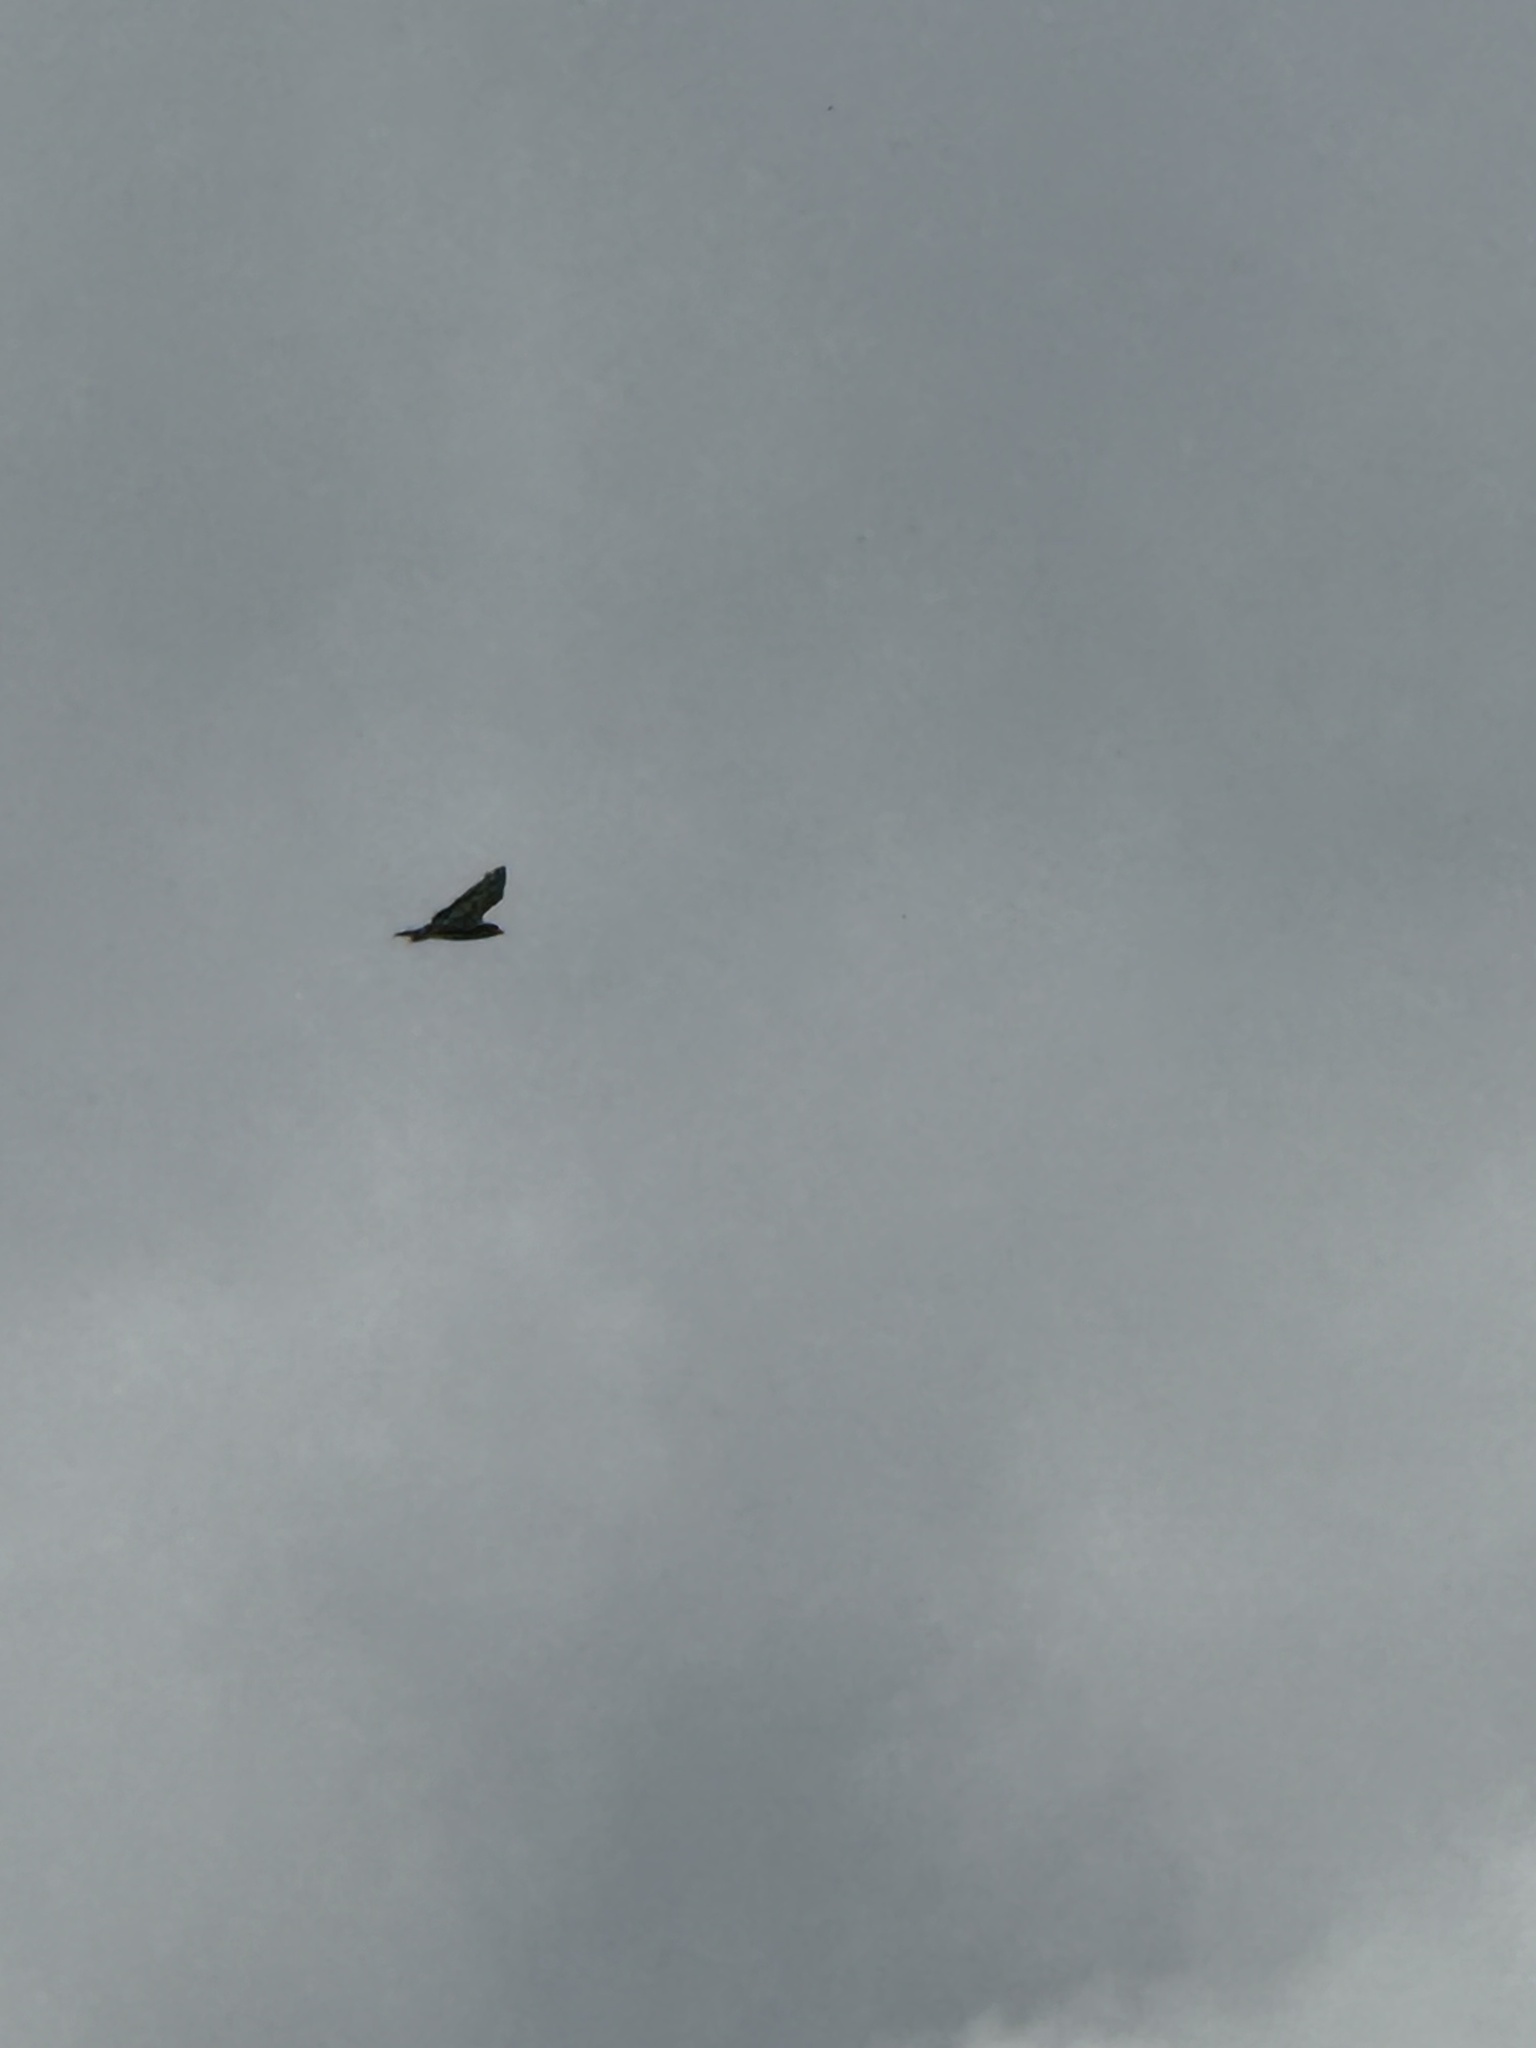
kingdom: Animalia
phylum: Chordata
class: Aves
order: Accipitriformes
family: Accipitridae
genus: Buteo
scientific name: Buteo jamaicensis
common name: Red-tailed hawk
